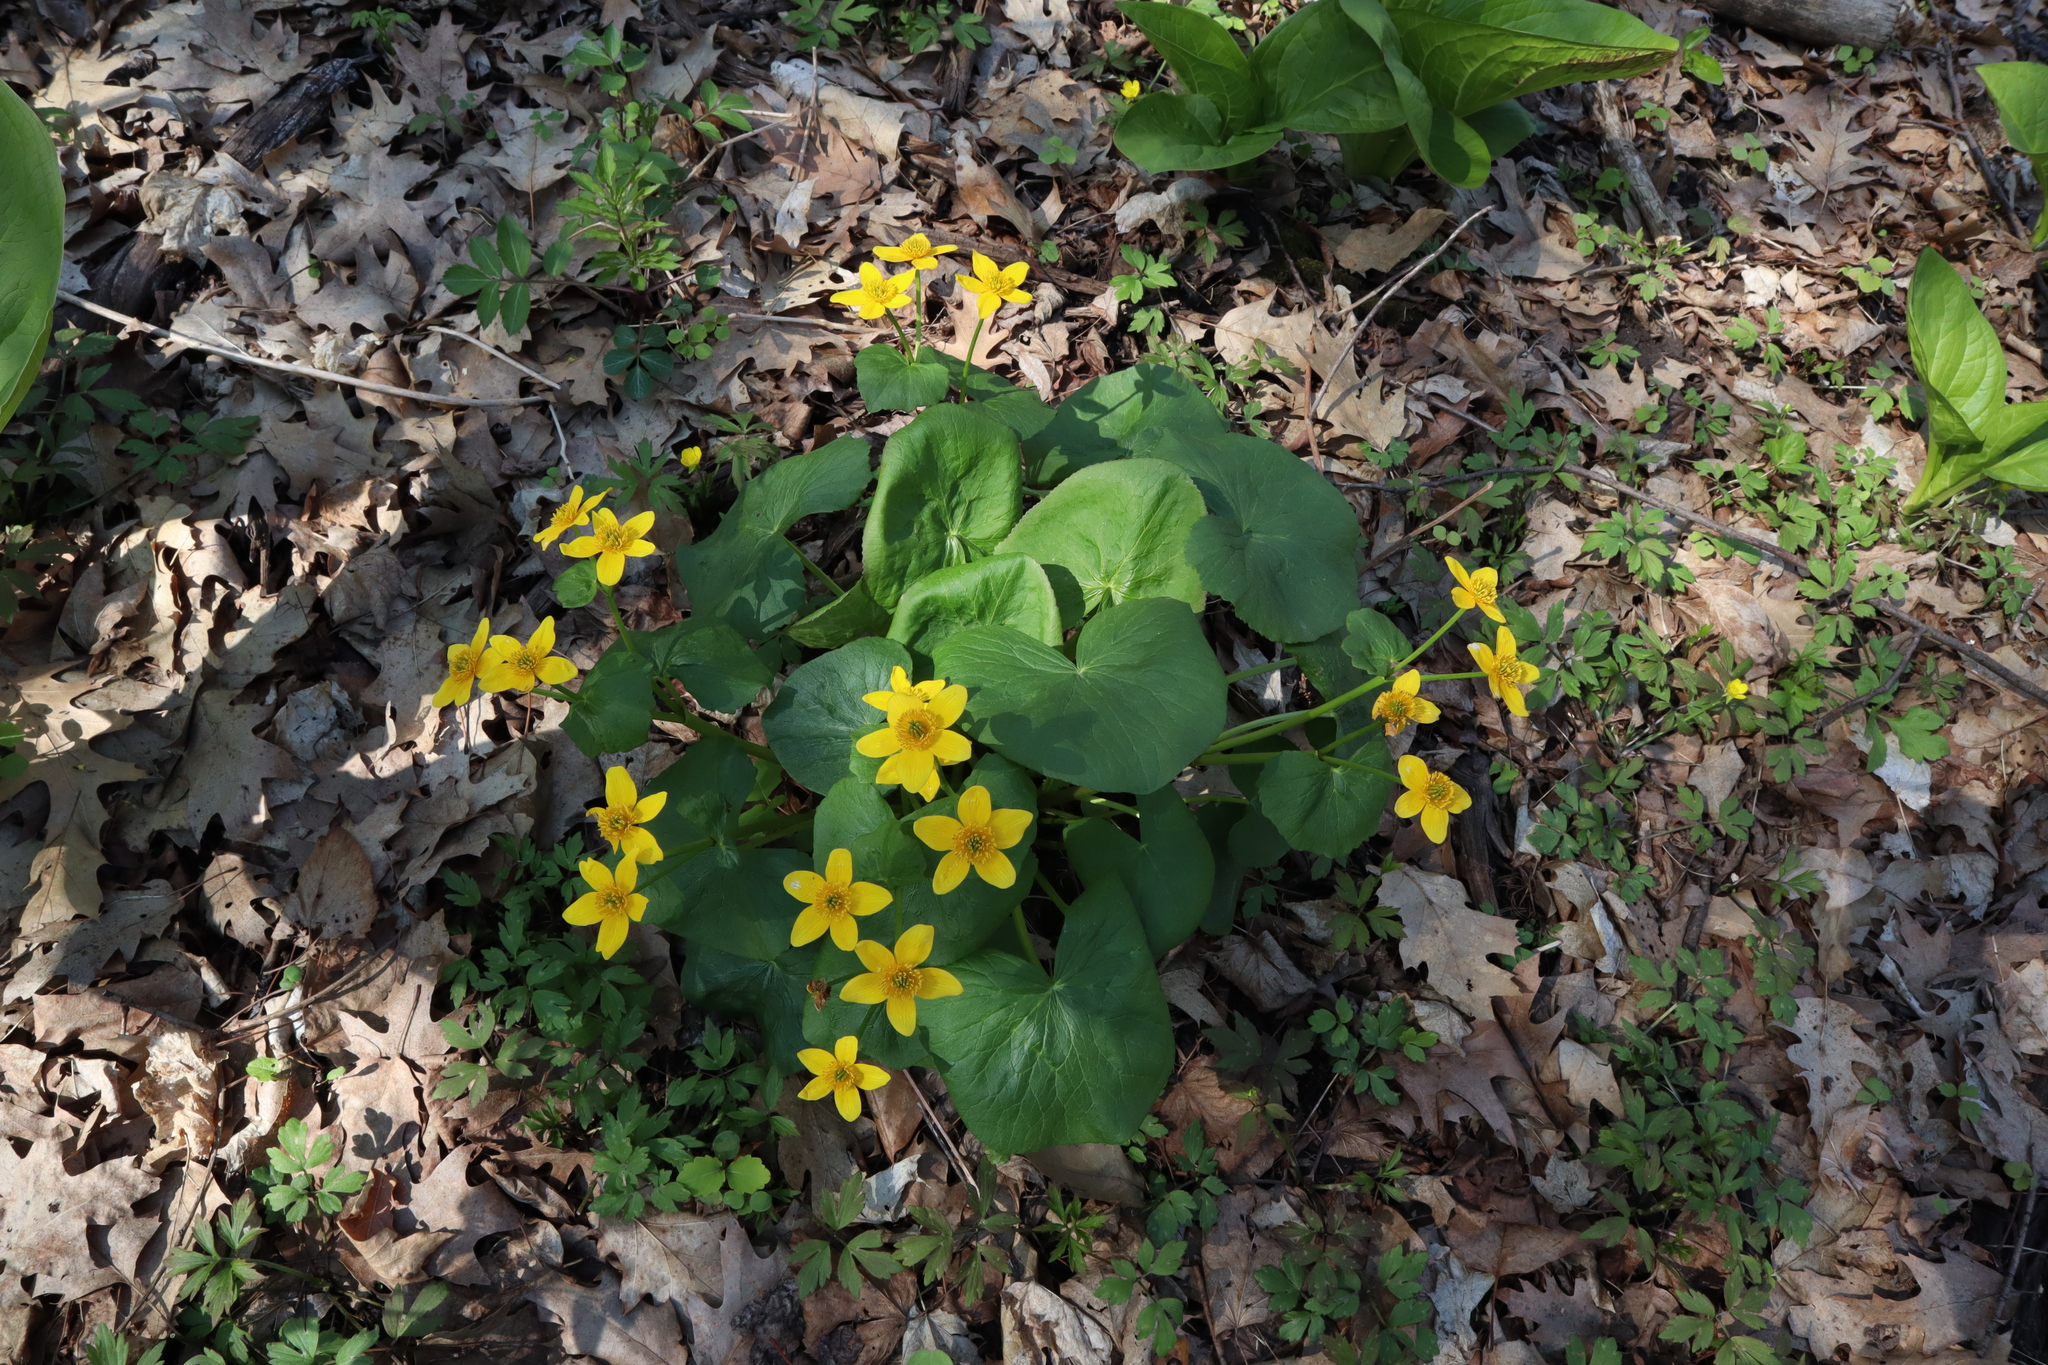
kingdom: Plantae
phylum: Tracheophyta
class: Magnoliopsida
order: Ranunculales
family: Ranunculaceae
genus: Caltha
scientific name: Caltha palustris
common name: Marsh marigold
